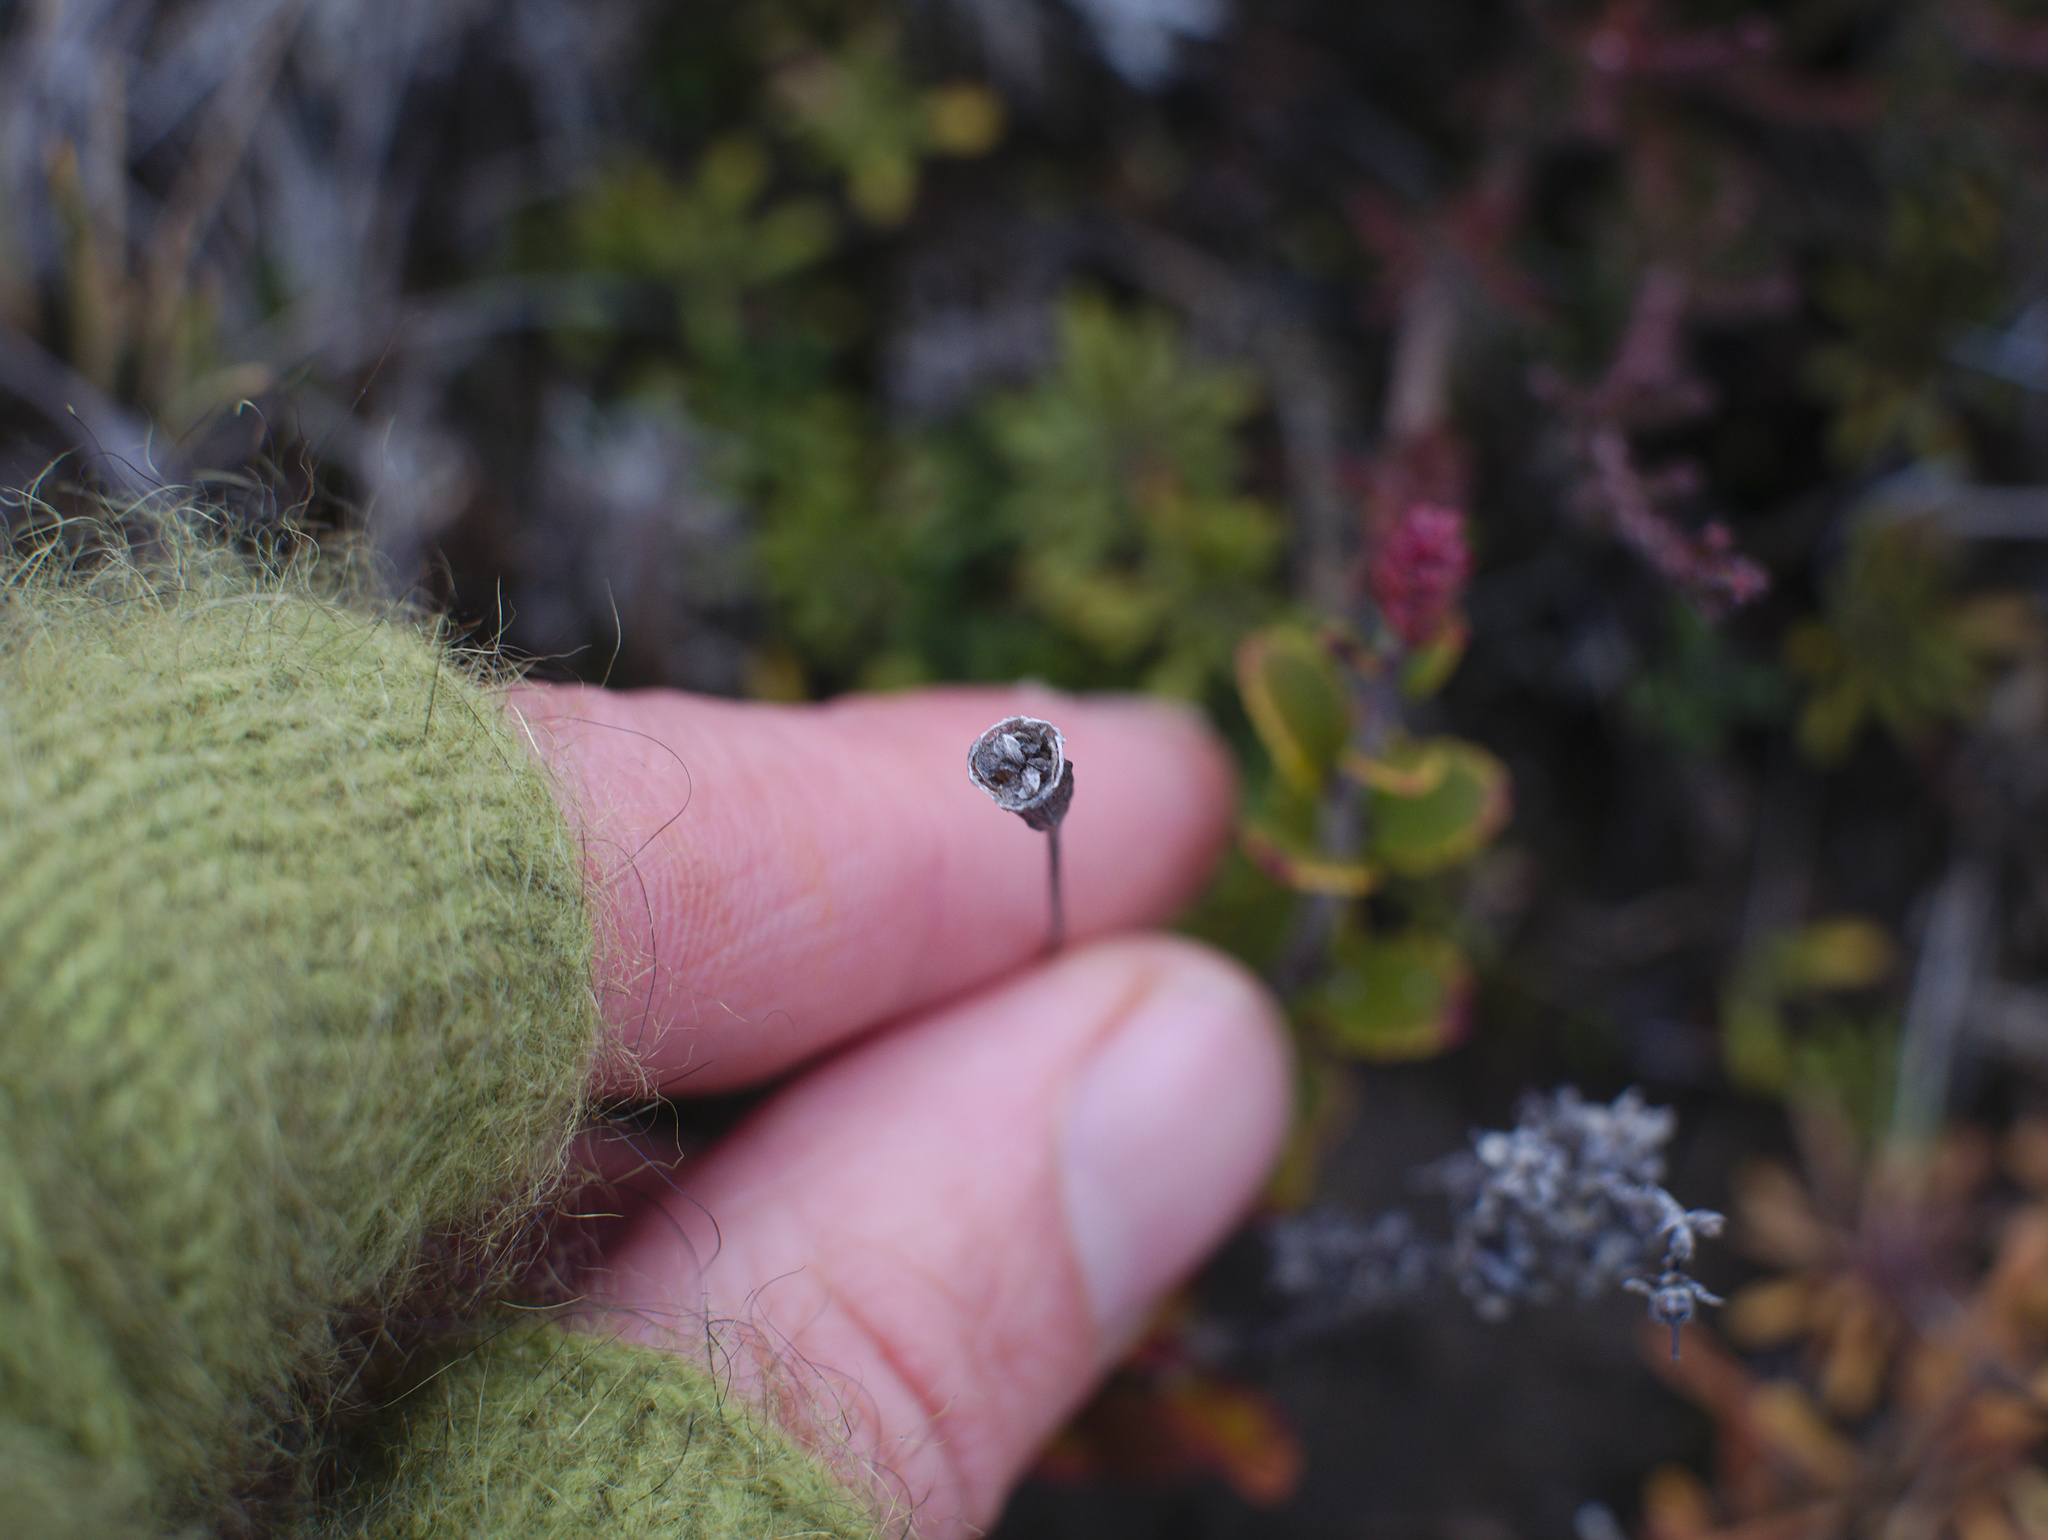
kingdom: Plantae
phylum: Tracheophyta
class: Magnoliopsida
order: Asterales
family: Campanulaceae
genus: Wahlenbergia
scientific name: Wahlenbergia pygmaea
